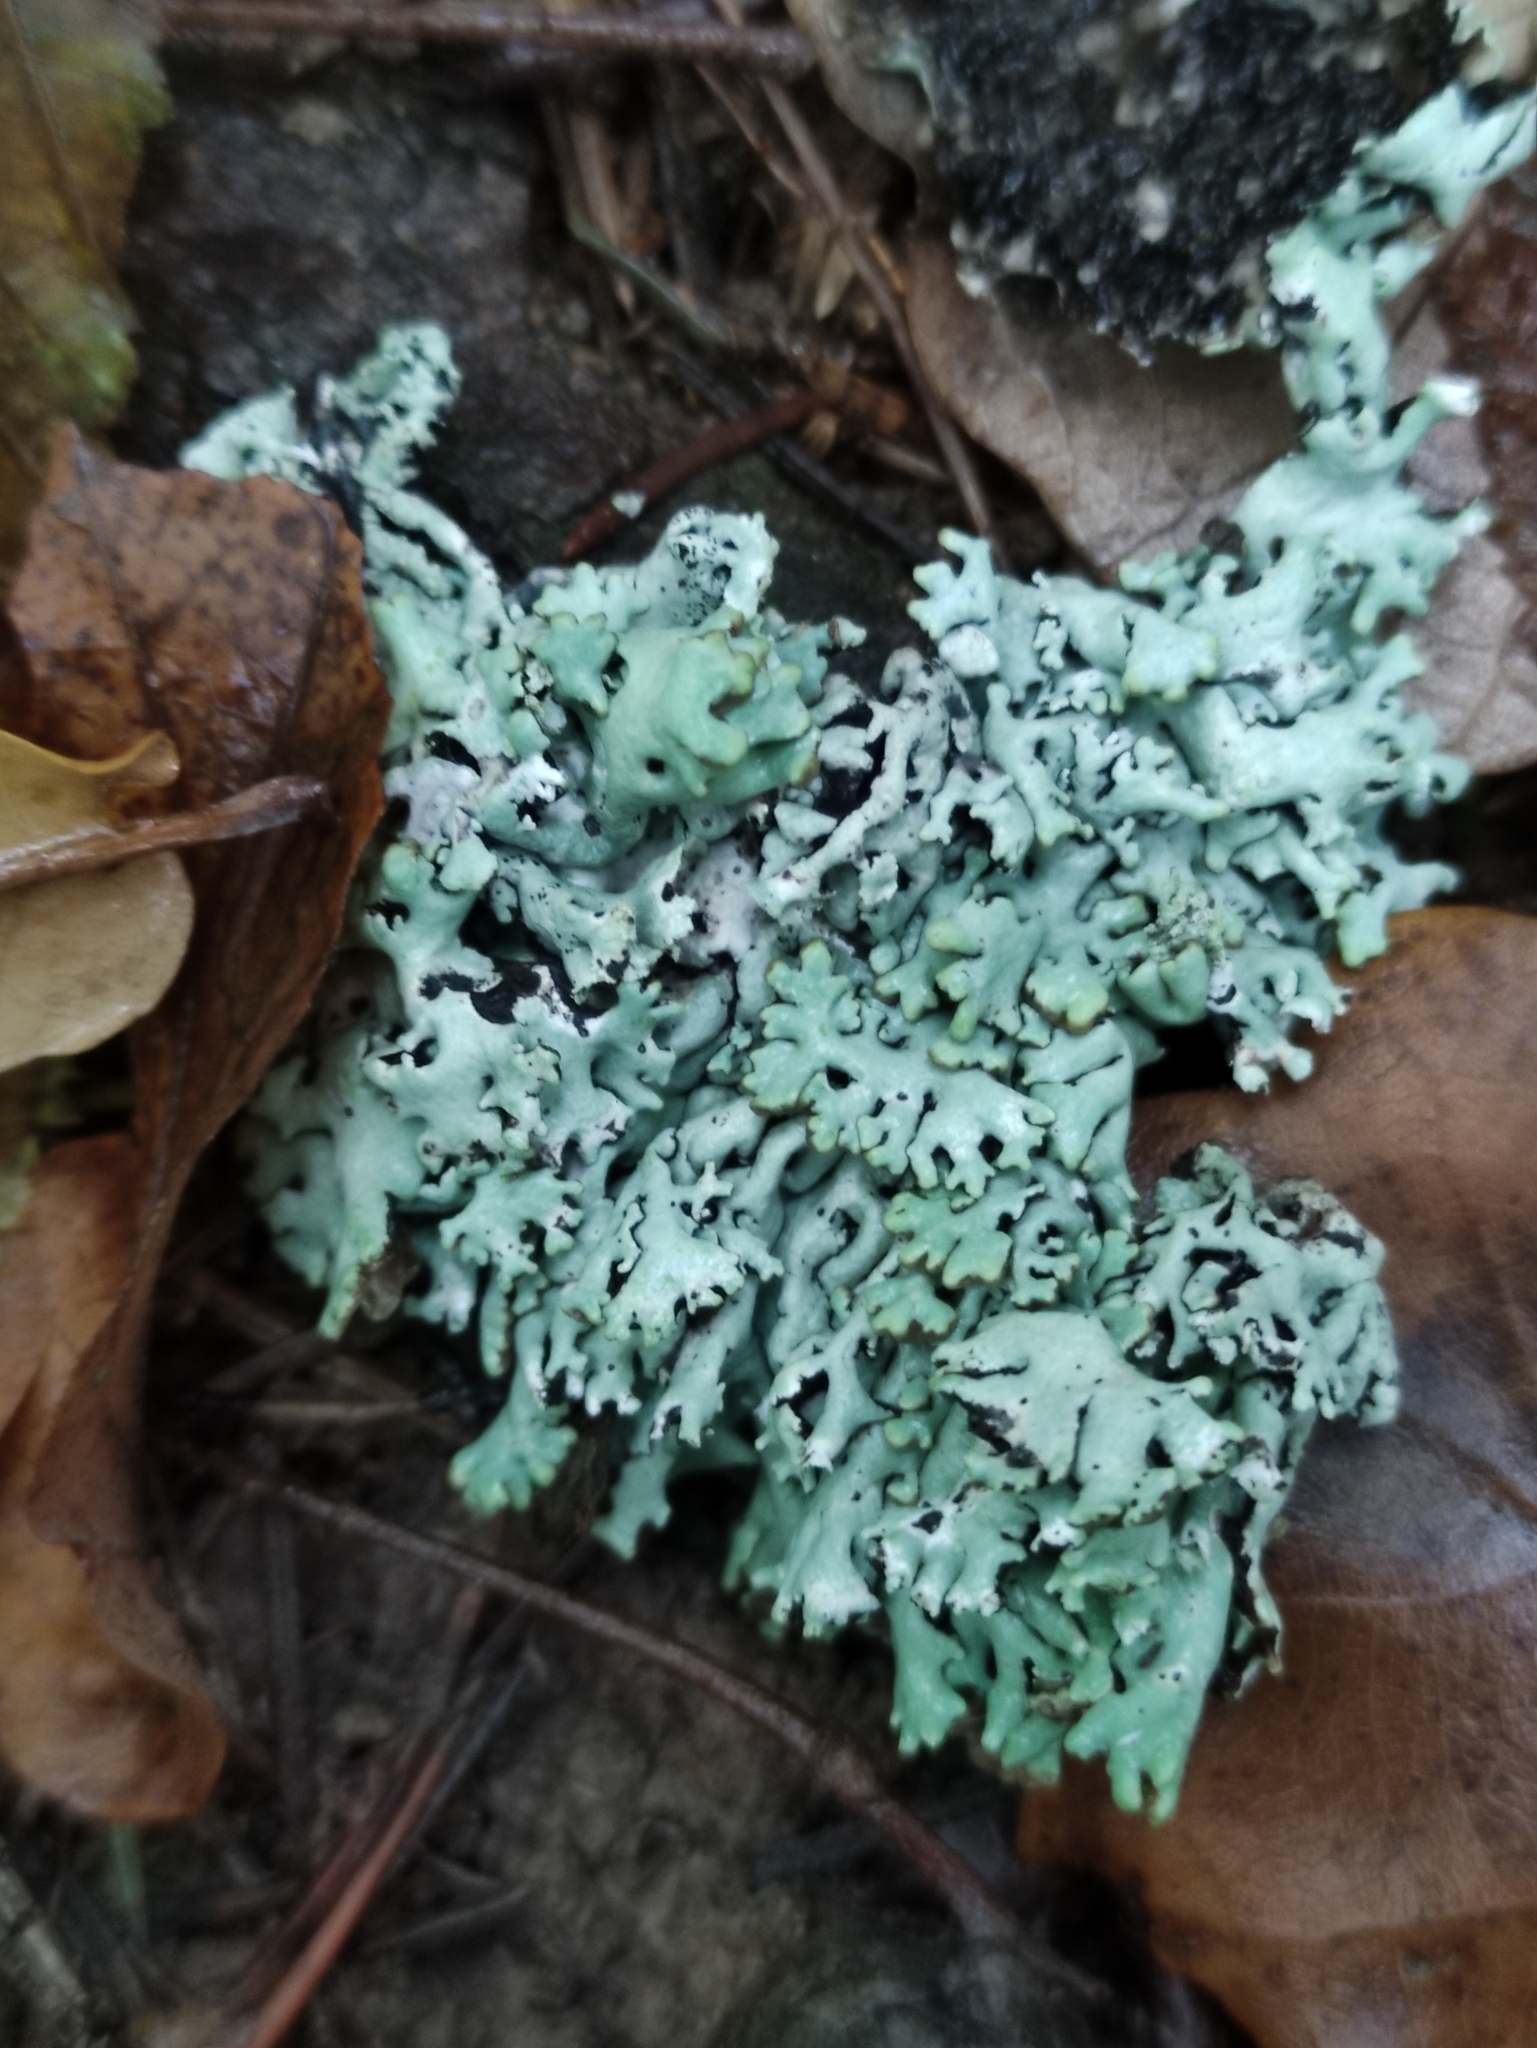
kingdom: Fungi
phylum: Ascomycota
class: Lecanoromycetes
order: Lecanorales
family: Parmeliaceae
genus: Hypogymnia
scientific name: Hypogymnia physodes
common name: Dark crottle
